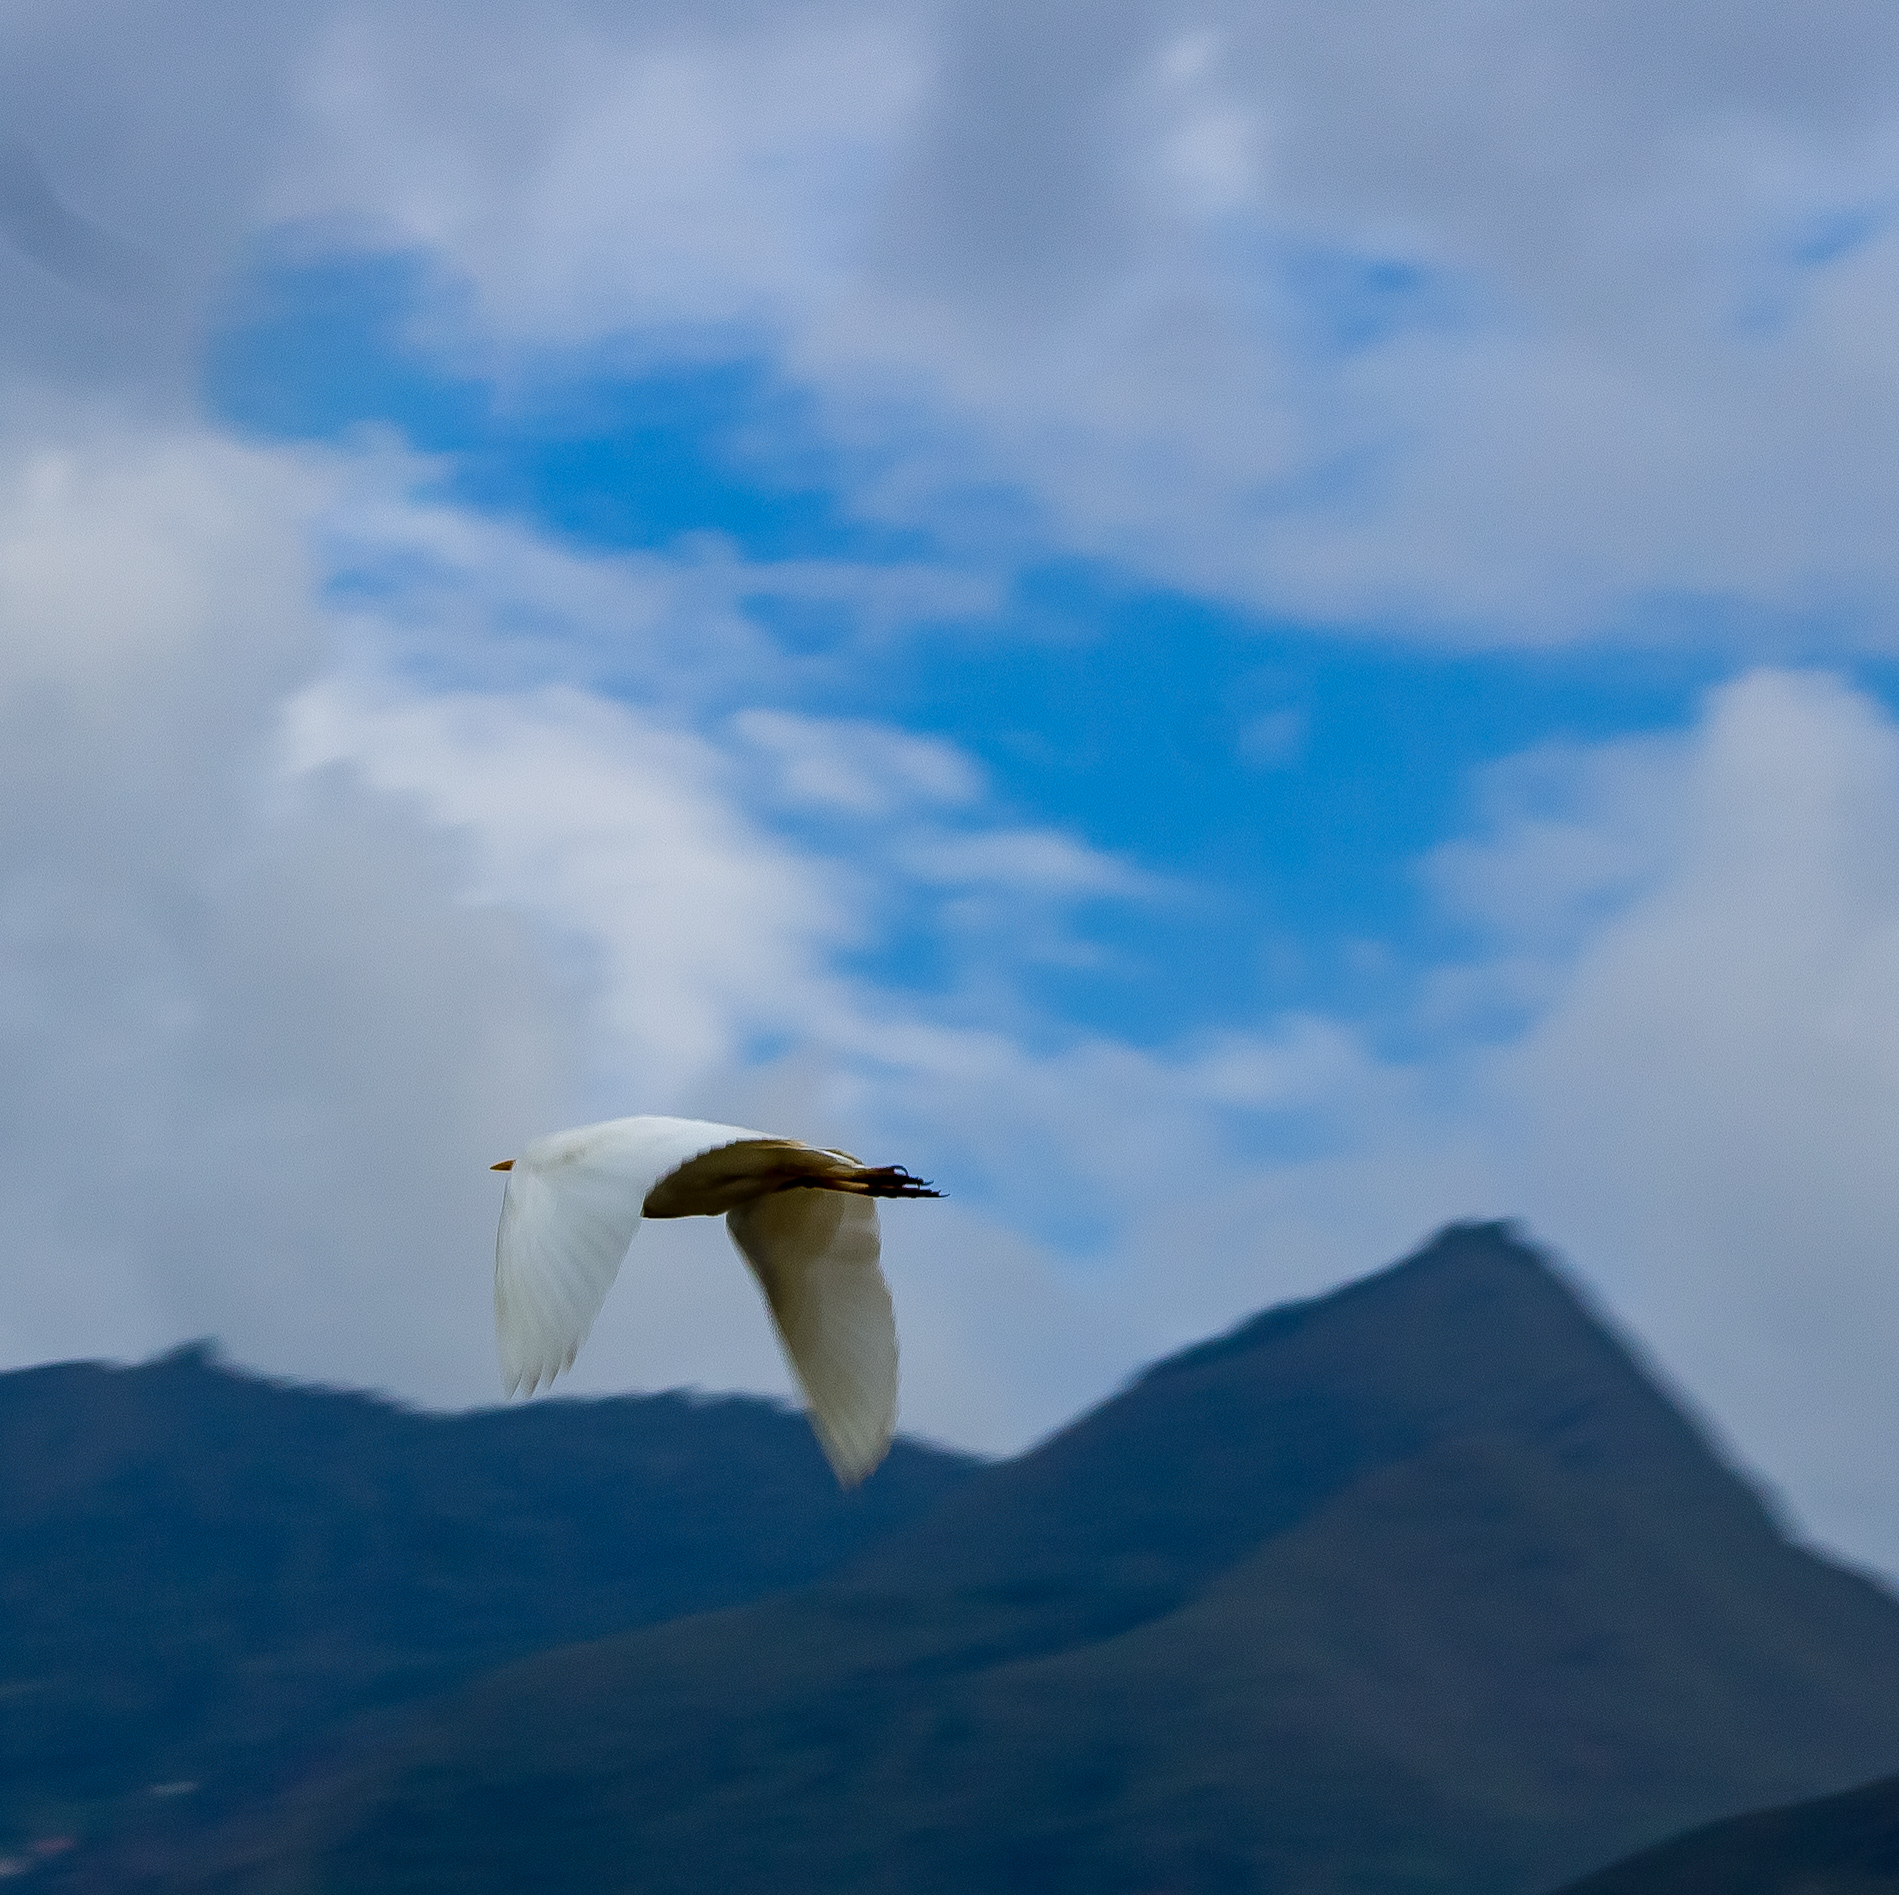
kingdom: Animalia
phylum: Chordata
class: Aves
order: Pelecaniformes
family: Ardeidae
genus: Bubulcus
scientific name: Bubulcus ibis
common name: Cattle egret
